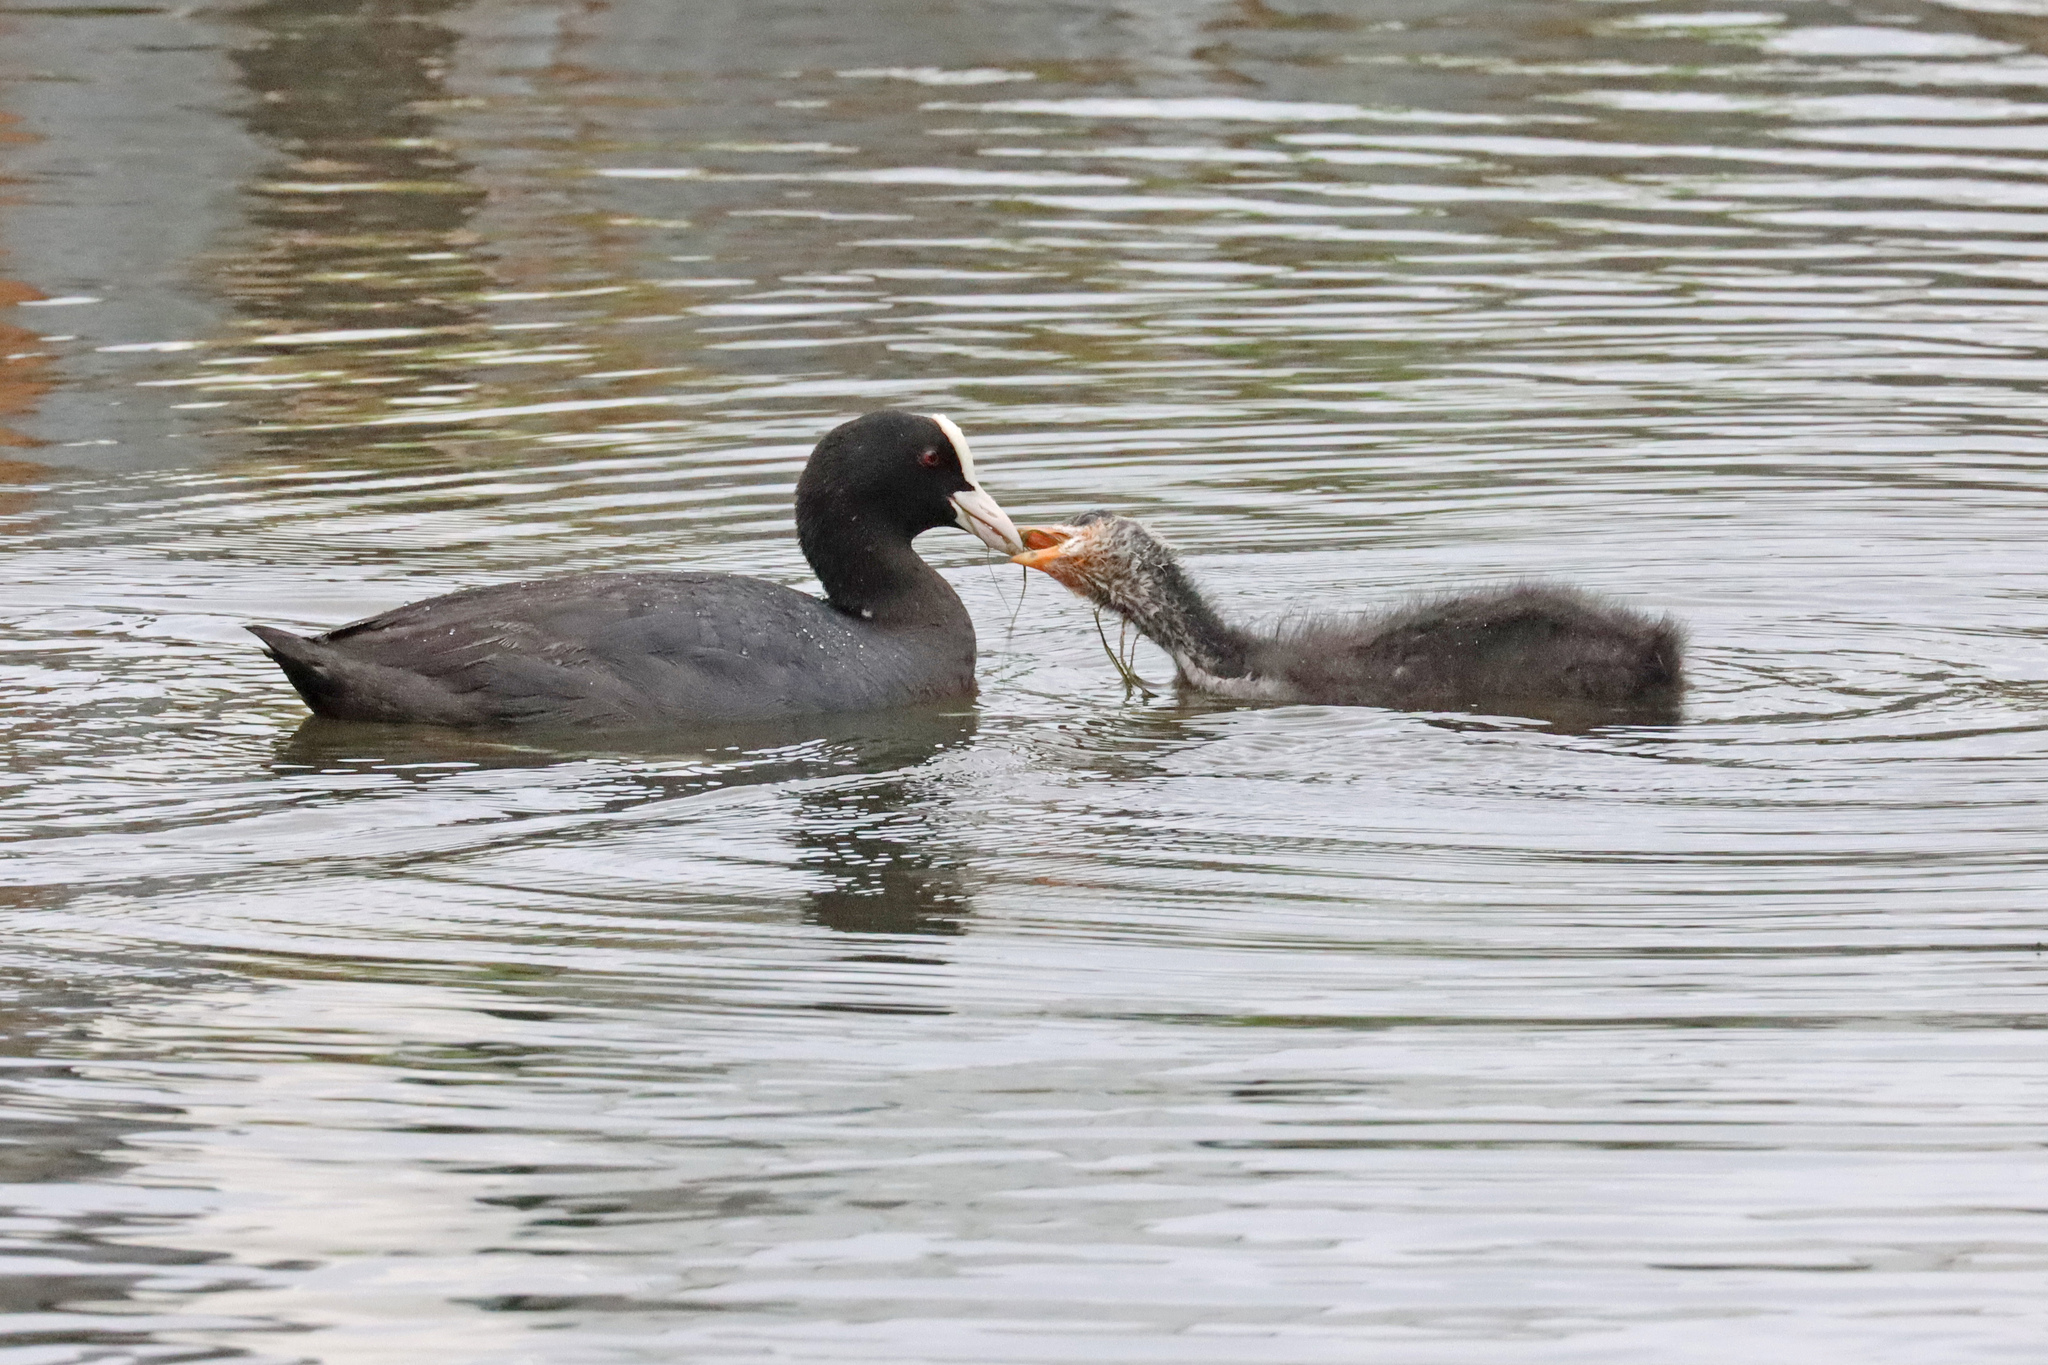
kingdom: Animalia
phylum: Chordata
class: Aves
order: Gruiformes
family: Rallidae
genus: Fulica
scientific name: Fulica atra
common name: Eurasian coot
